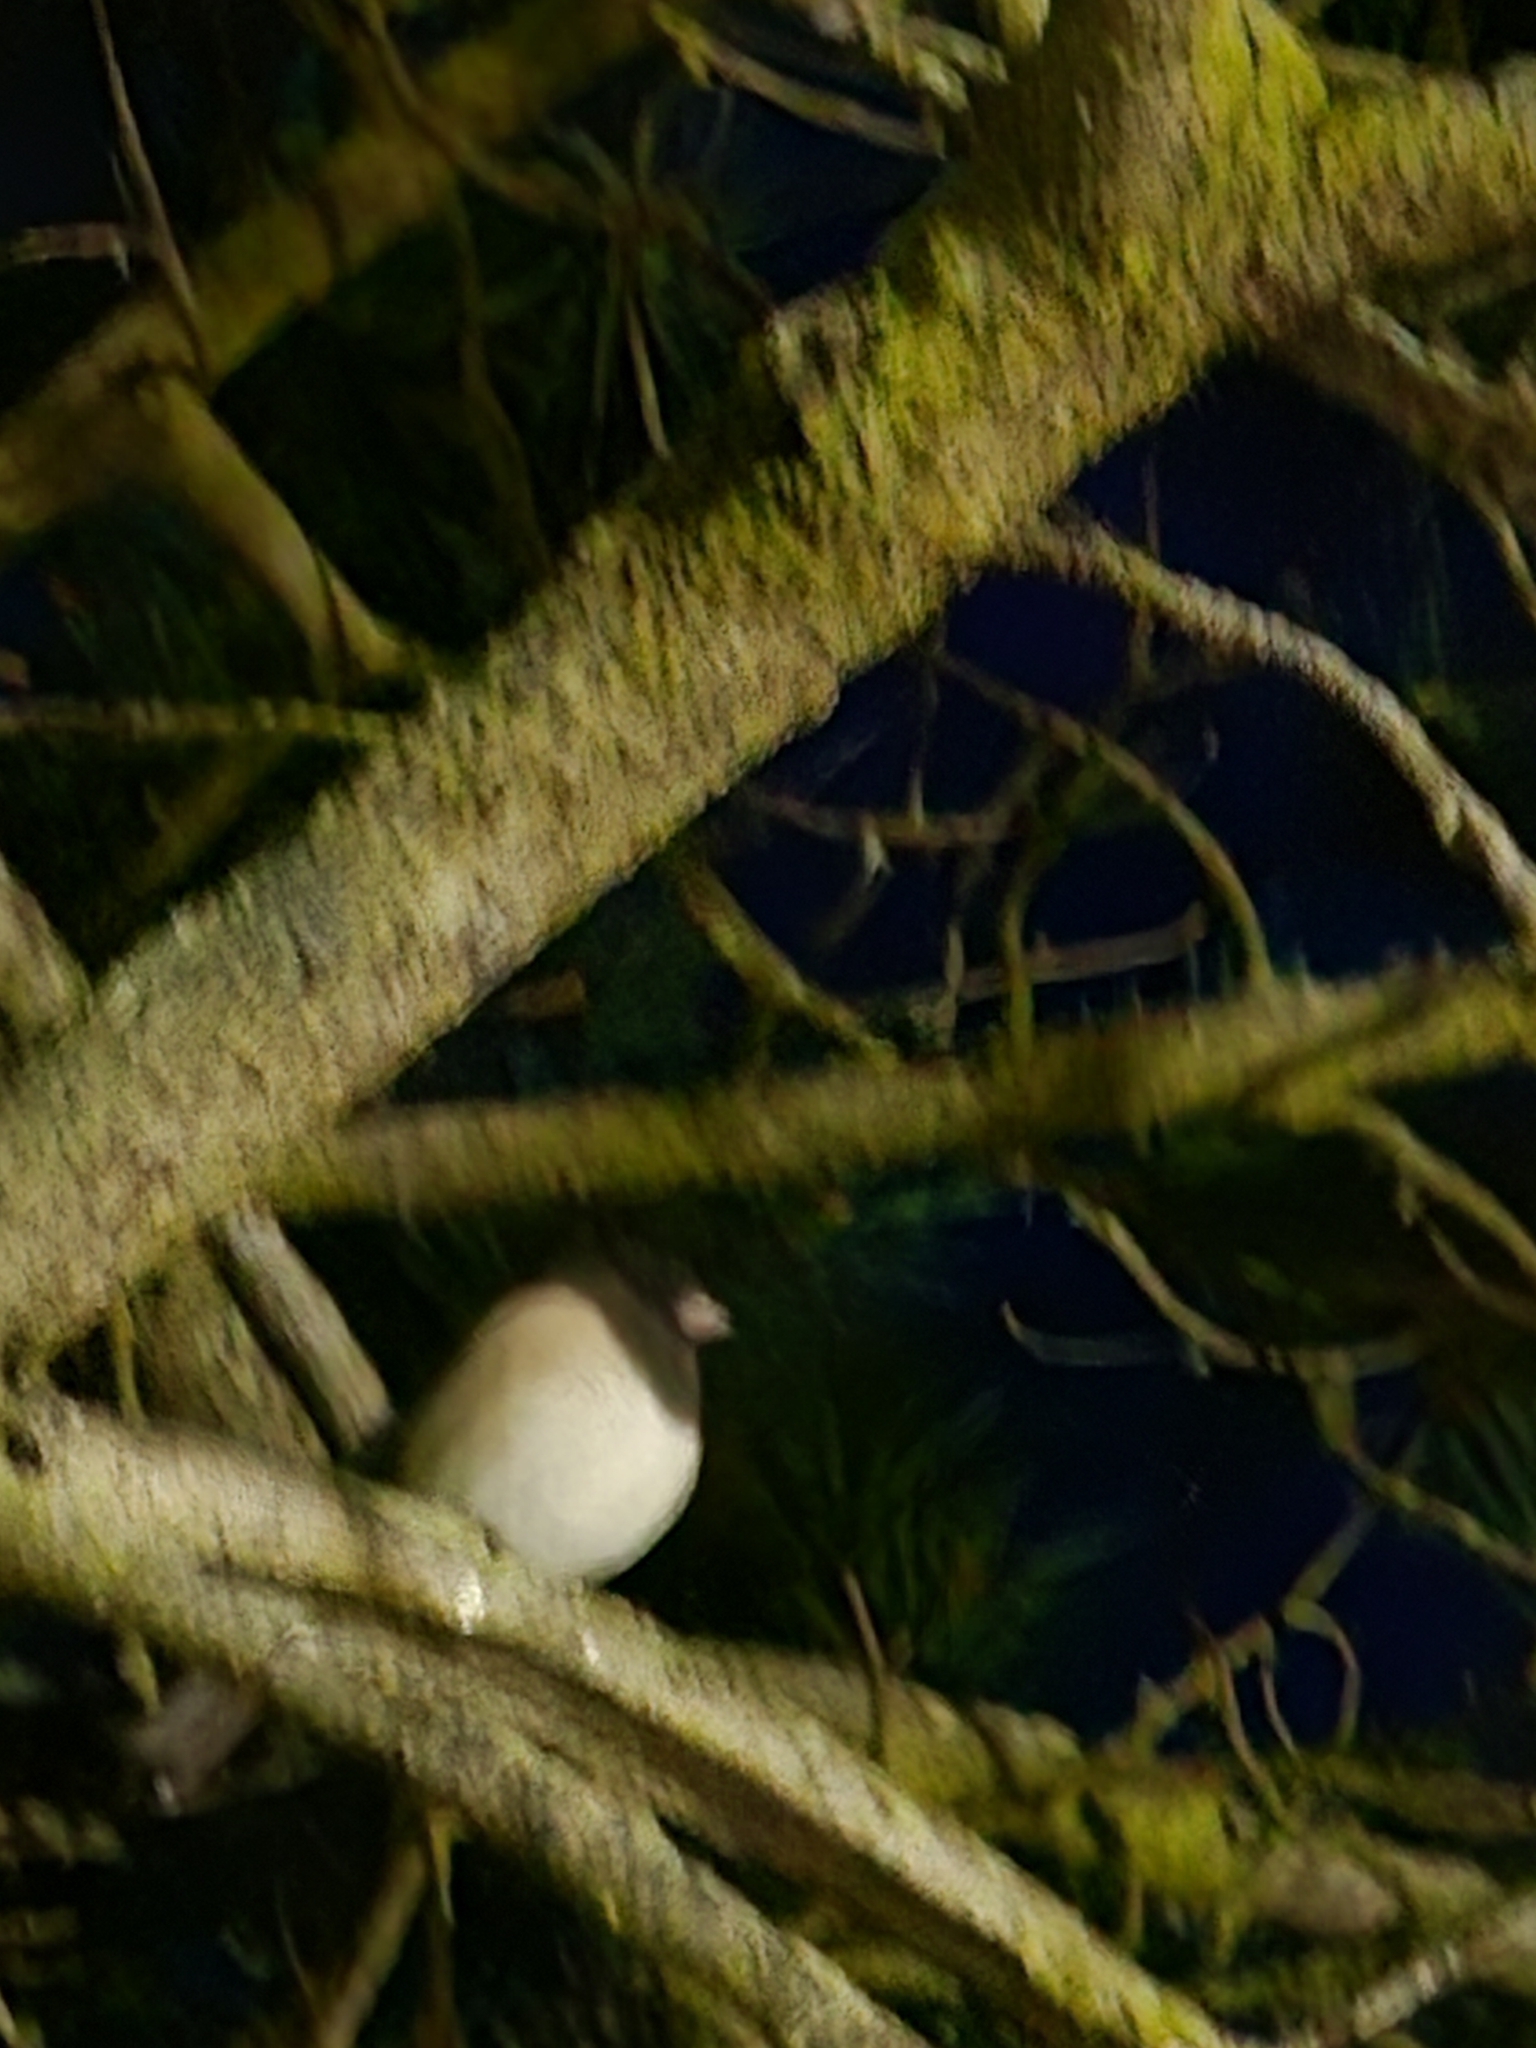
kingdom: Animalia
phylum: Chordata
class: Aves
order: Passeriformes
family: Passerellidae
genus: Junco
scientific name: Junco hyemalis
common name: Dark-eyed junco
